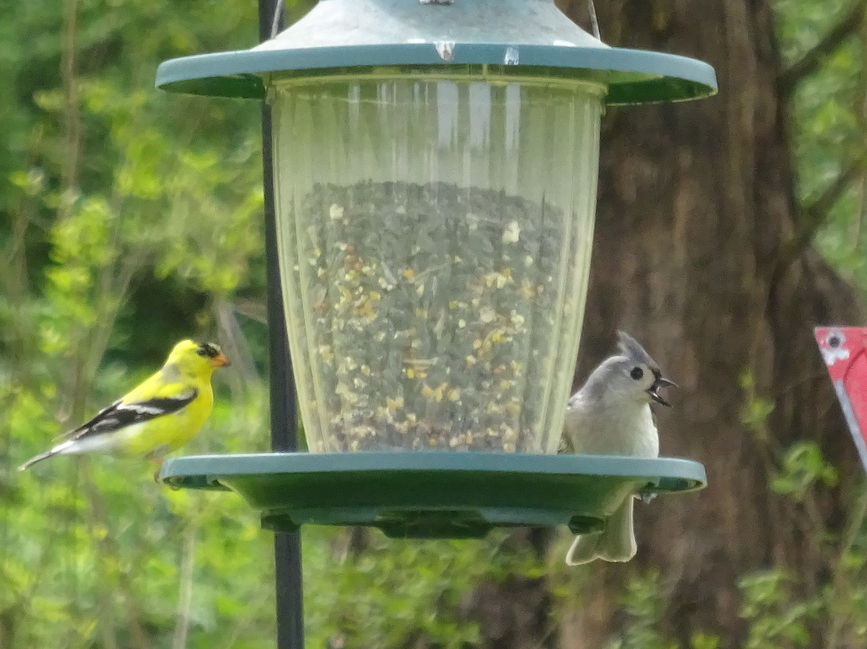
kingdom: Animalia
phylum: Chordata
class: Aves
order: Passeriformes
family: Paridae
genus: Baeolophus
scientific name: Baeolophus bicolor
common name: Tufted titmouse
